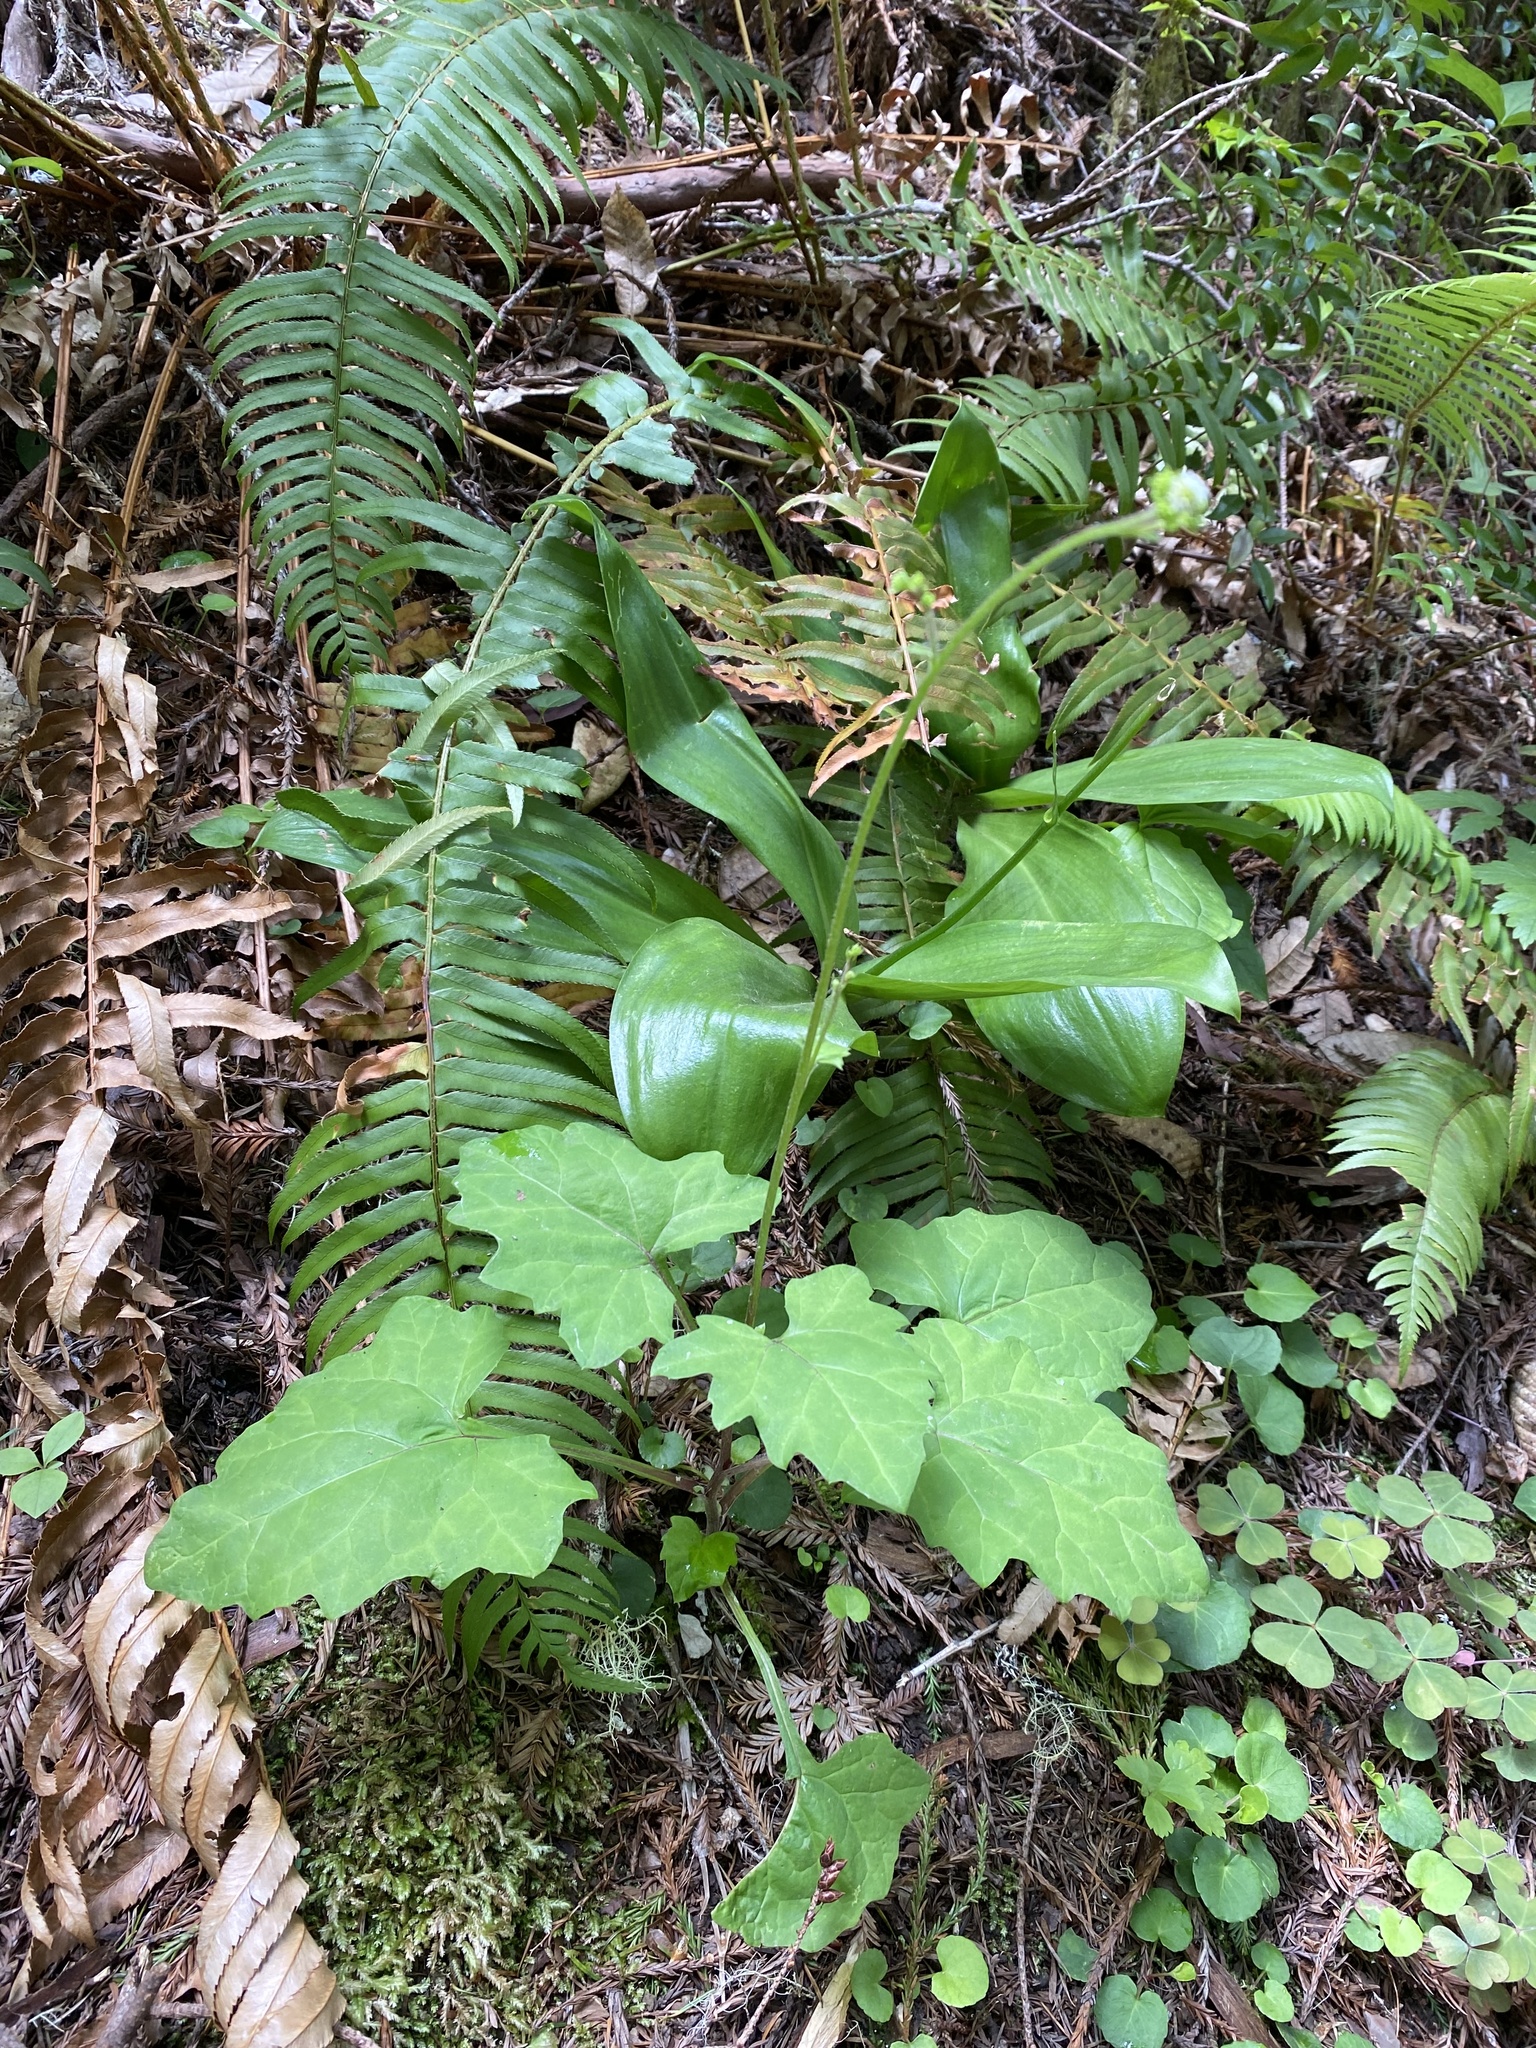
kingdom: Plantae
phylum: Tracheophyta
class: Magnoliopsida
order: Asterales
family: Asteraceae
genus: Adenocaulon
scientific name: Adenocaulon bicolor
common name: Trailplant
